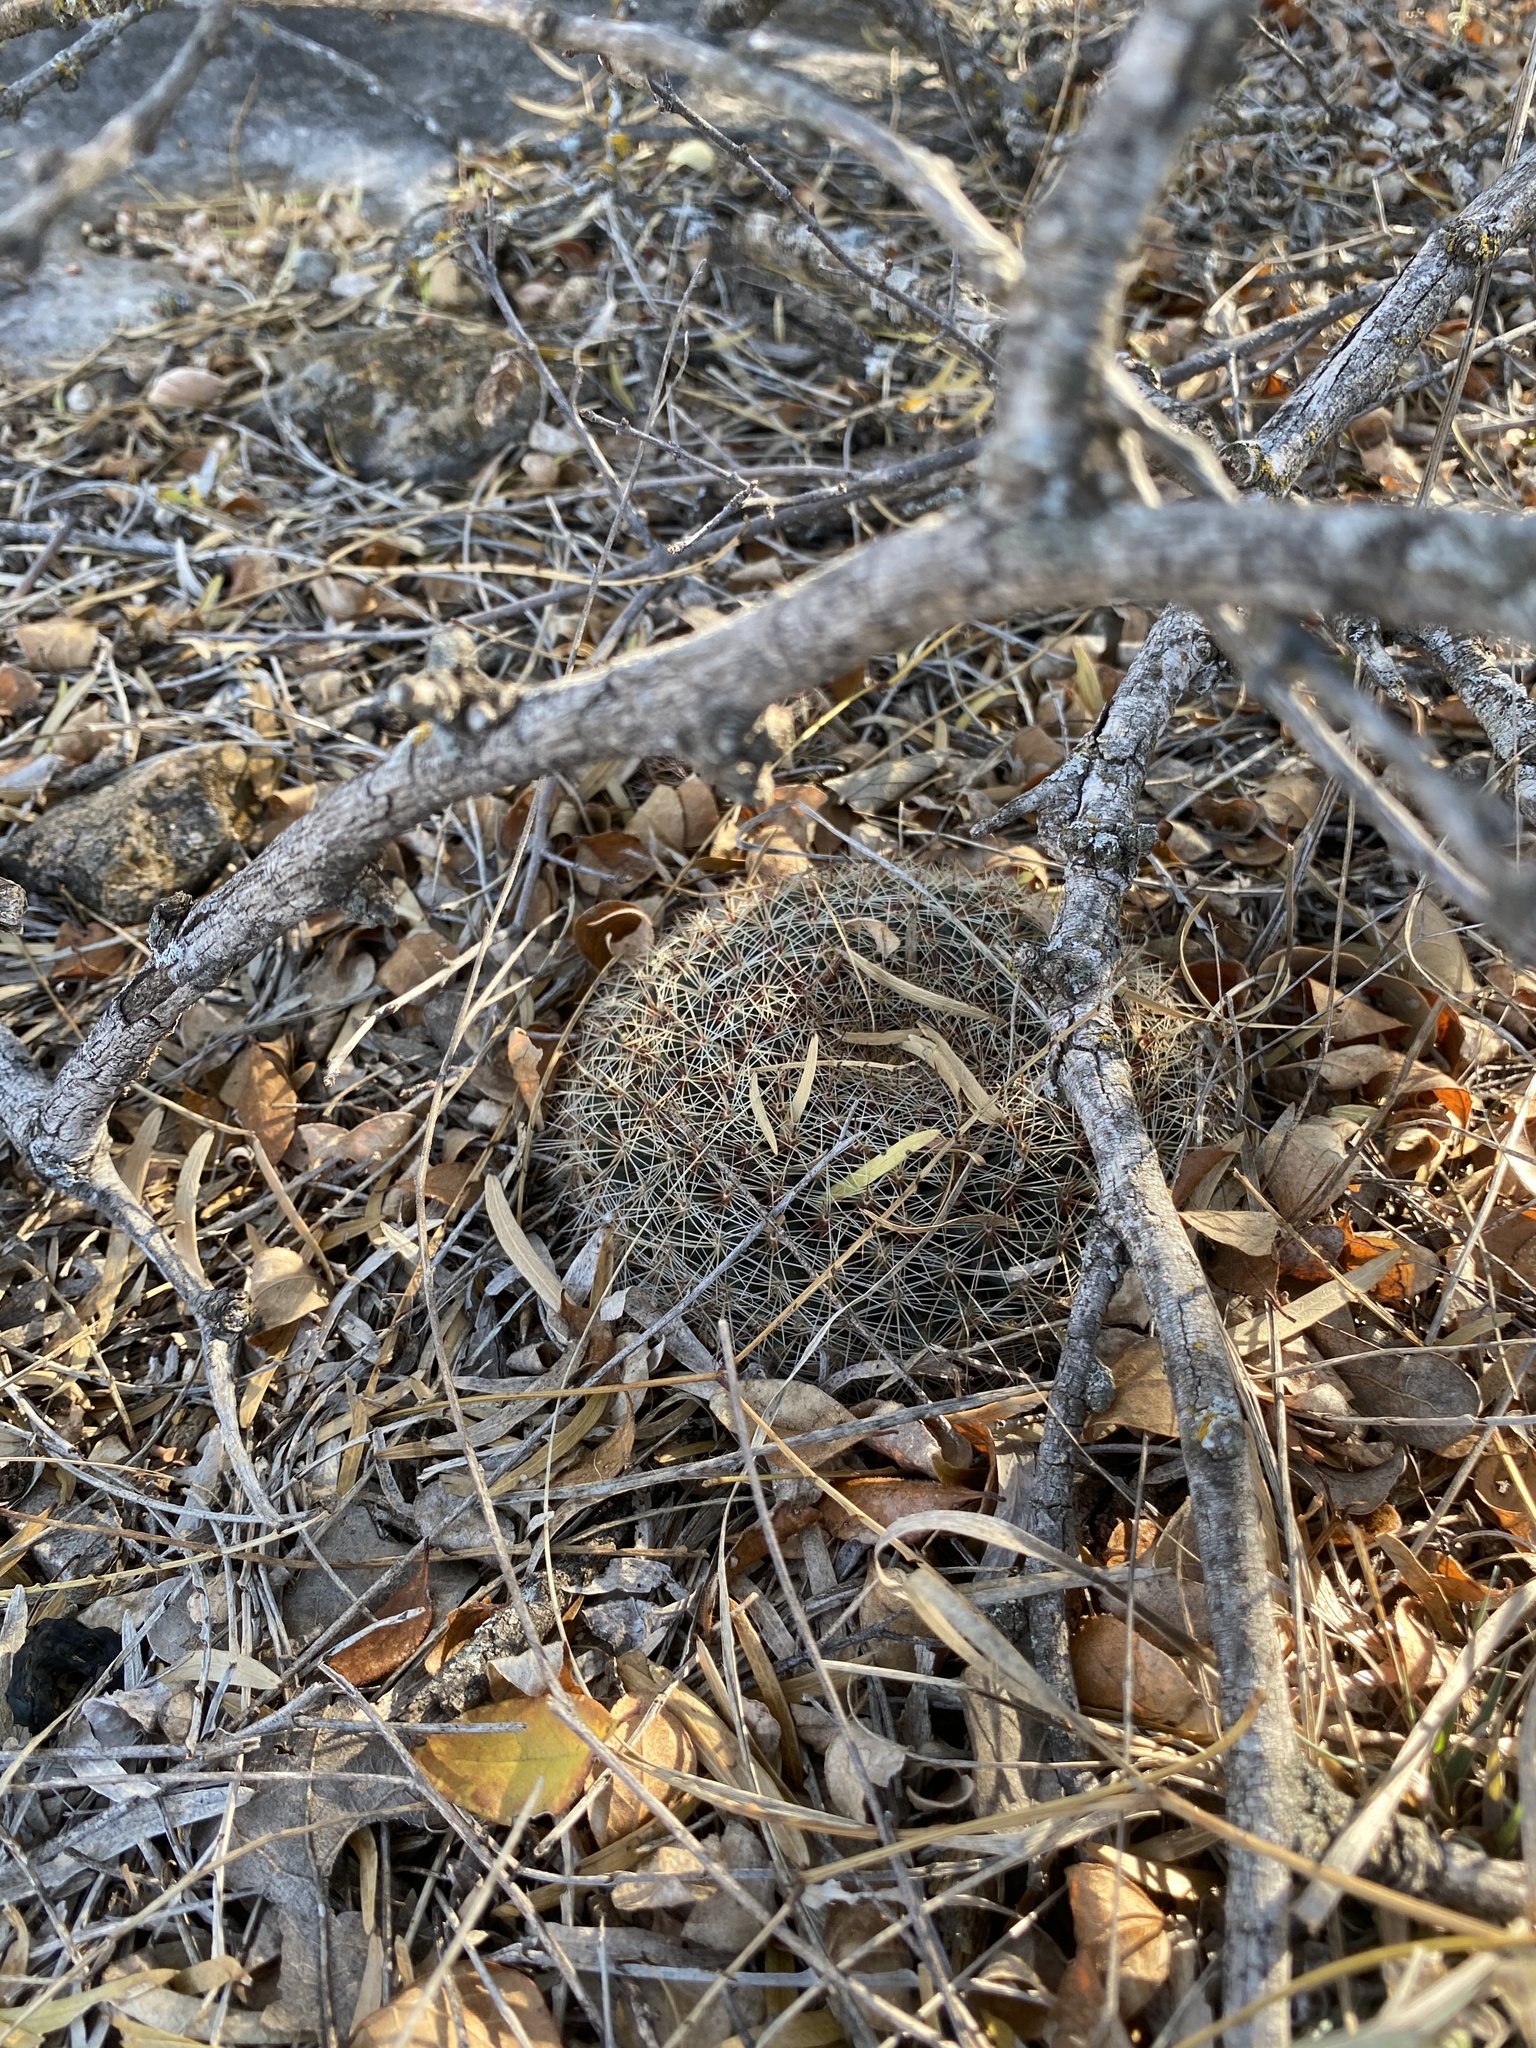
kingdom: Plantae
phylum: Tracheophyta
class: Magnoliopsida
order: Caryophyllales
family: Cactaceae
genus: Mammillaria
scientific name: Mammillaria heyderi
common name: Little nipple cactus
